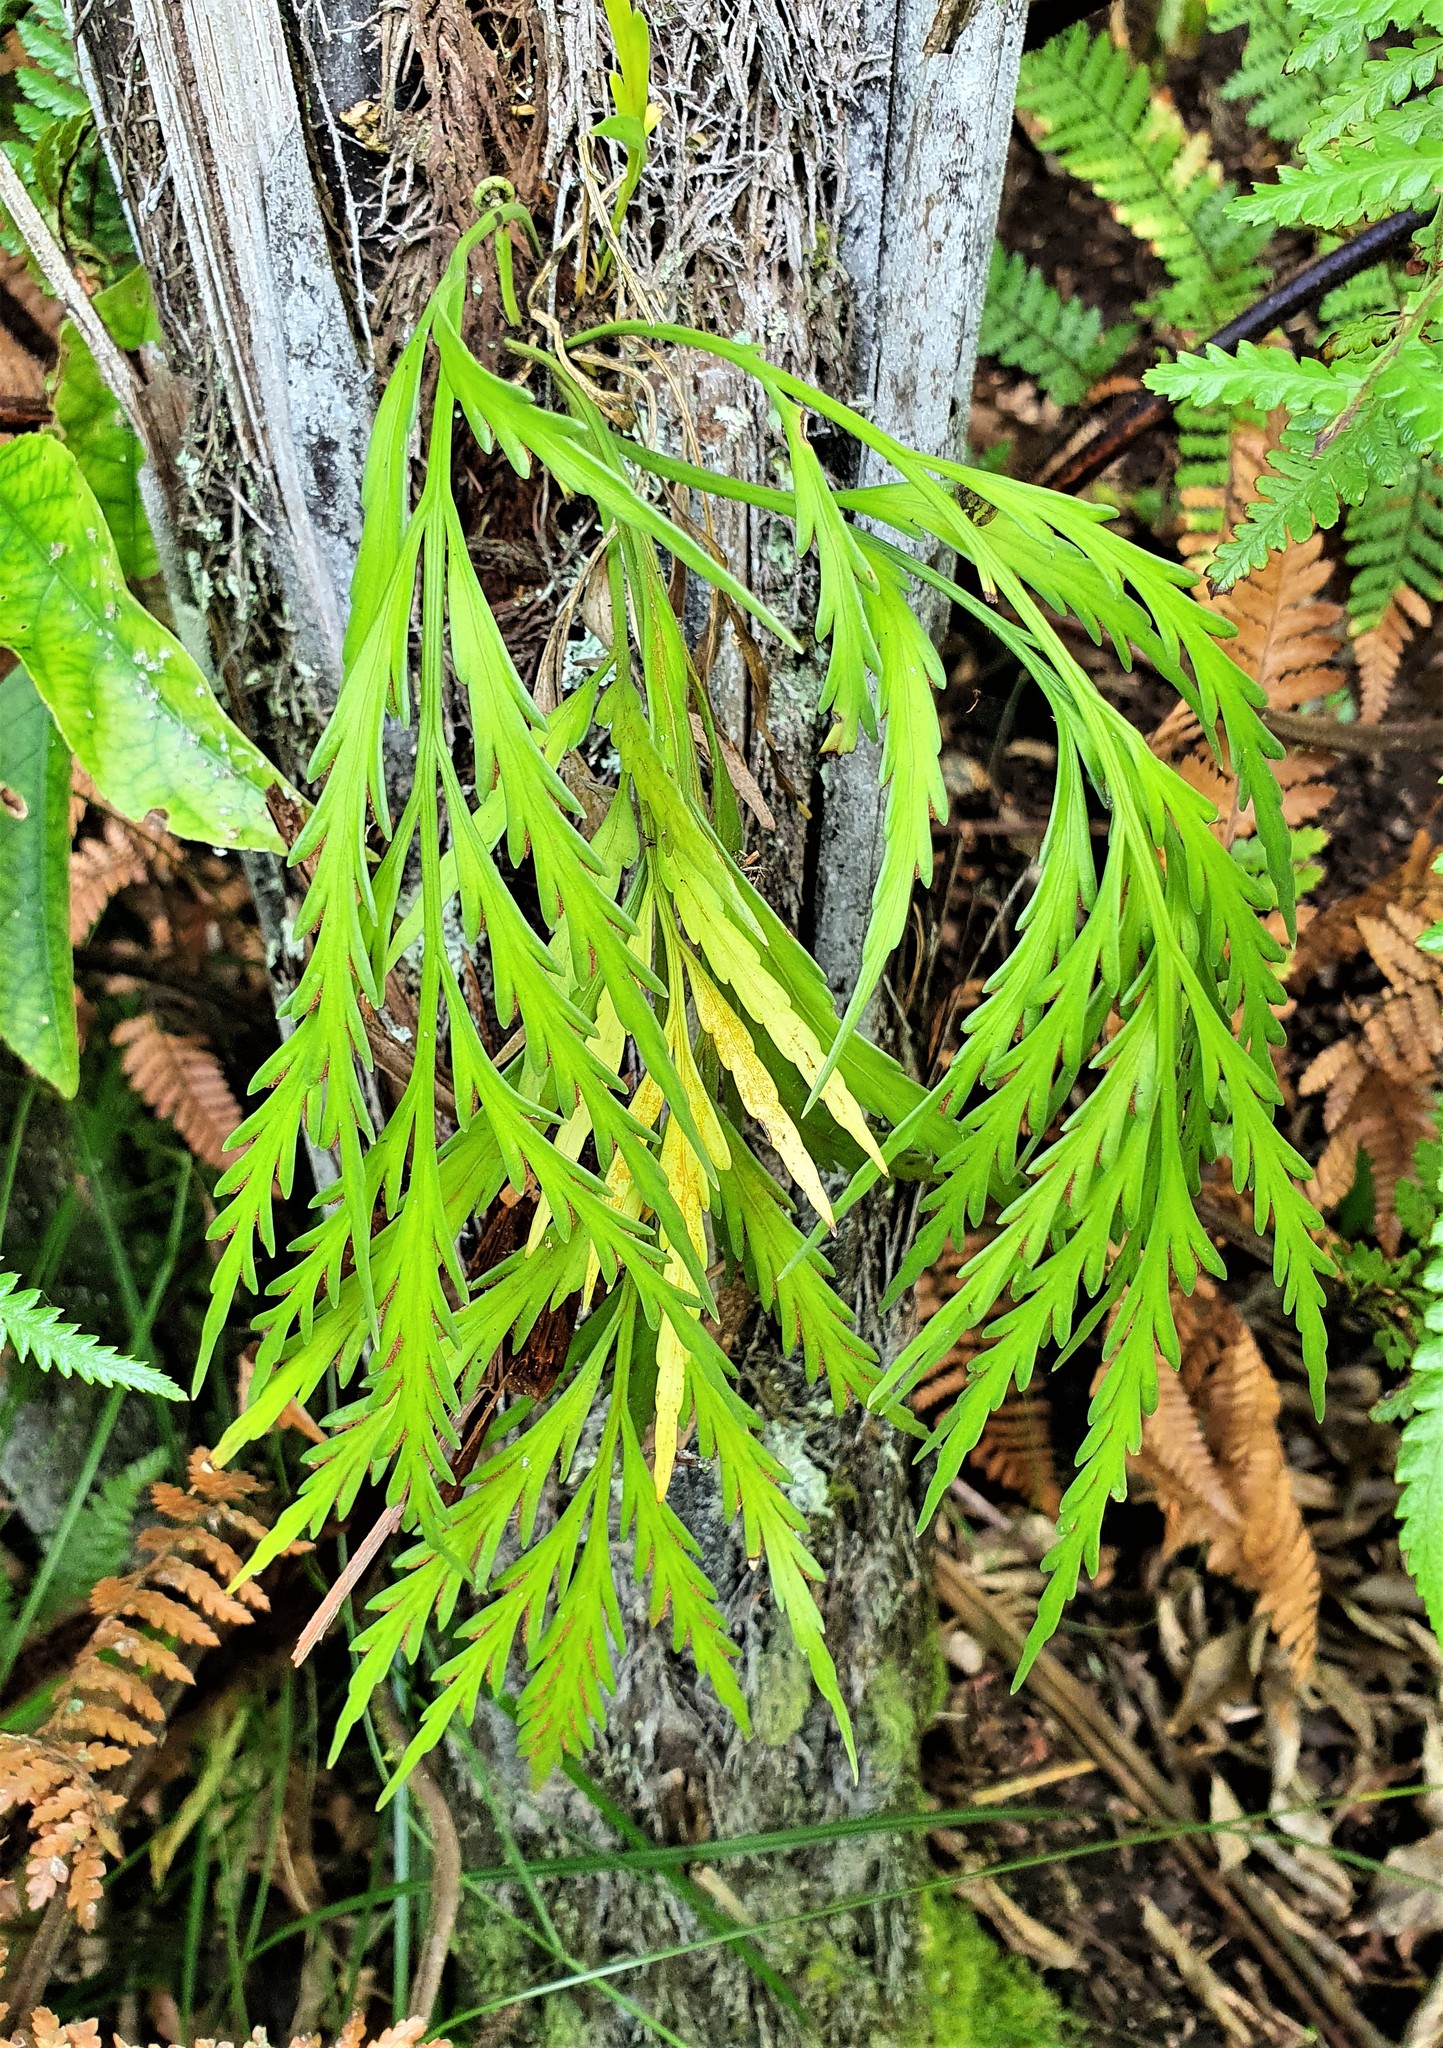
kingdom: Plantae
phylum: Tracheophyta
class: Polypodiopsida
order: Polypodiales
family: Aspleniaceae
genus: Asplenium
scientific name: Asplenium flaccidum
